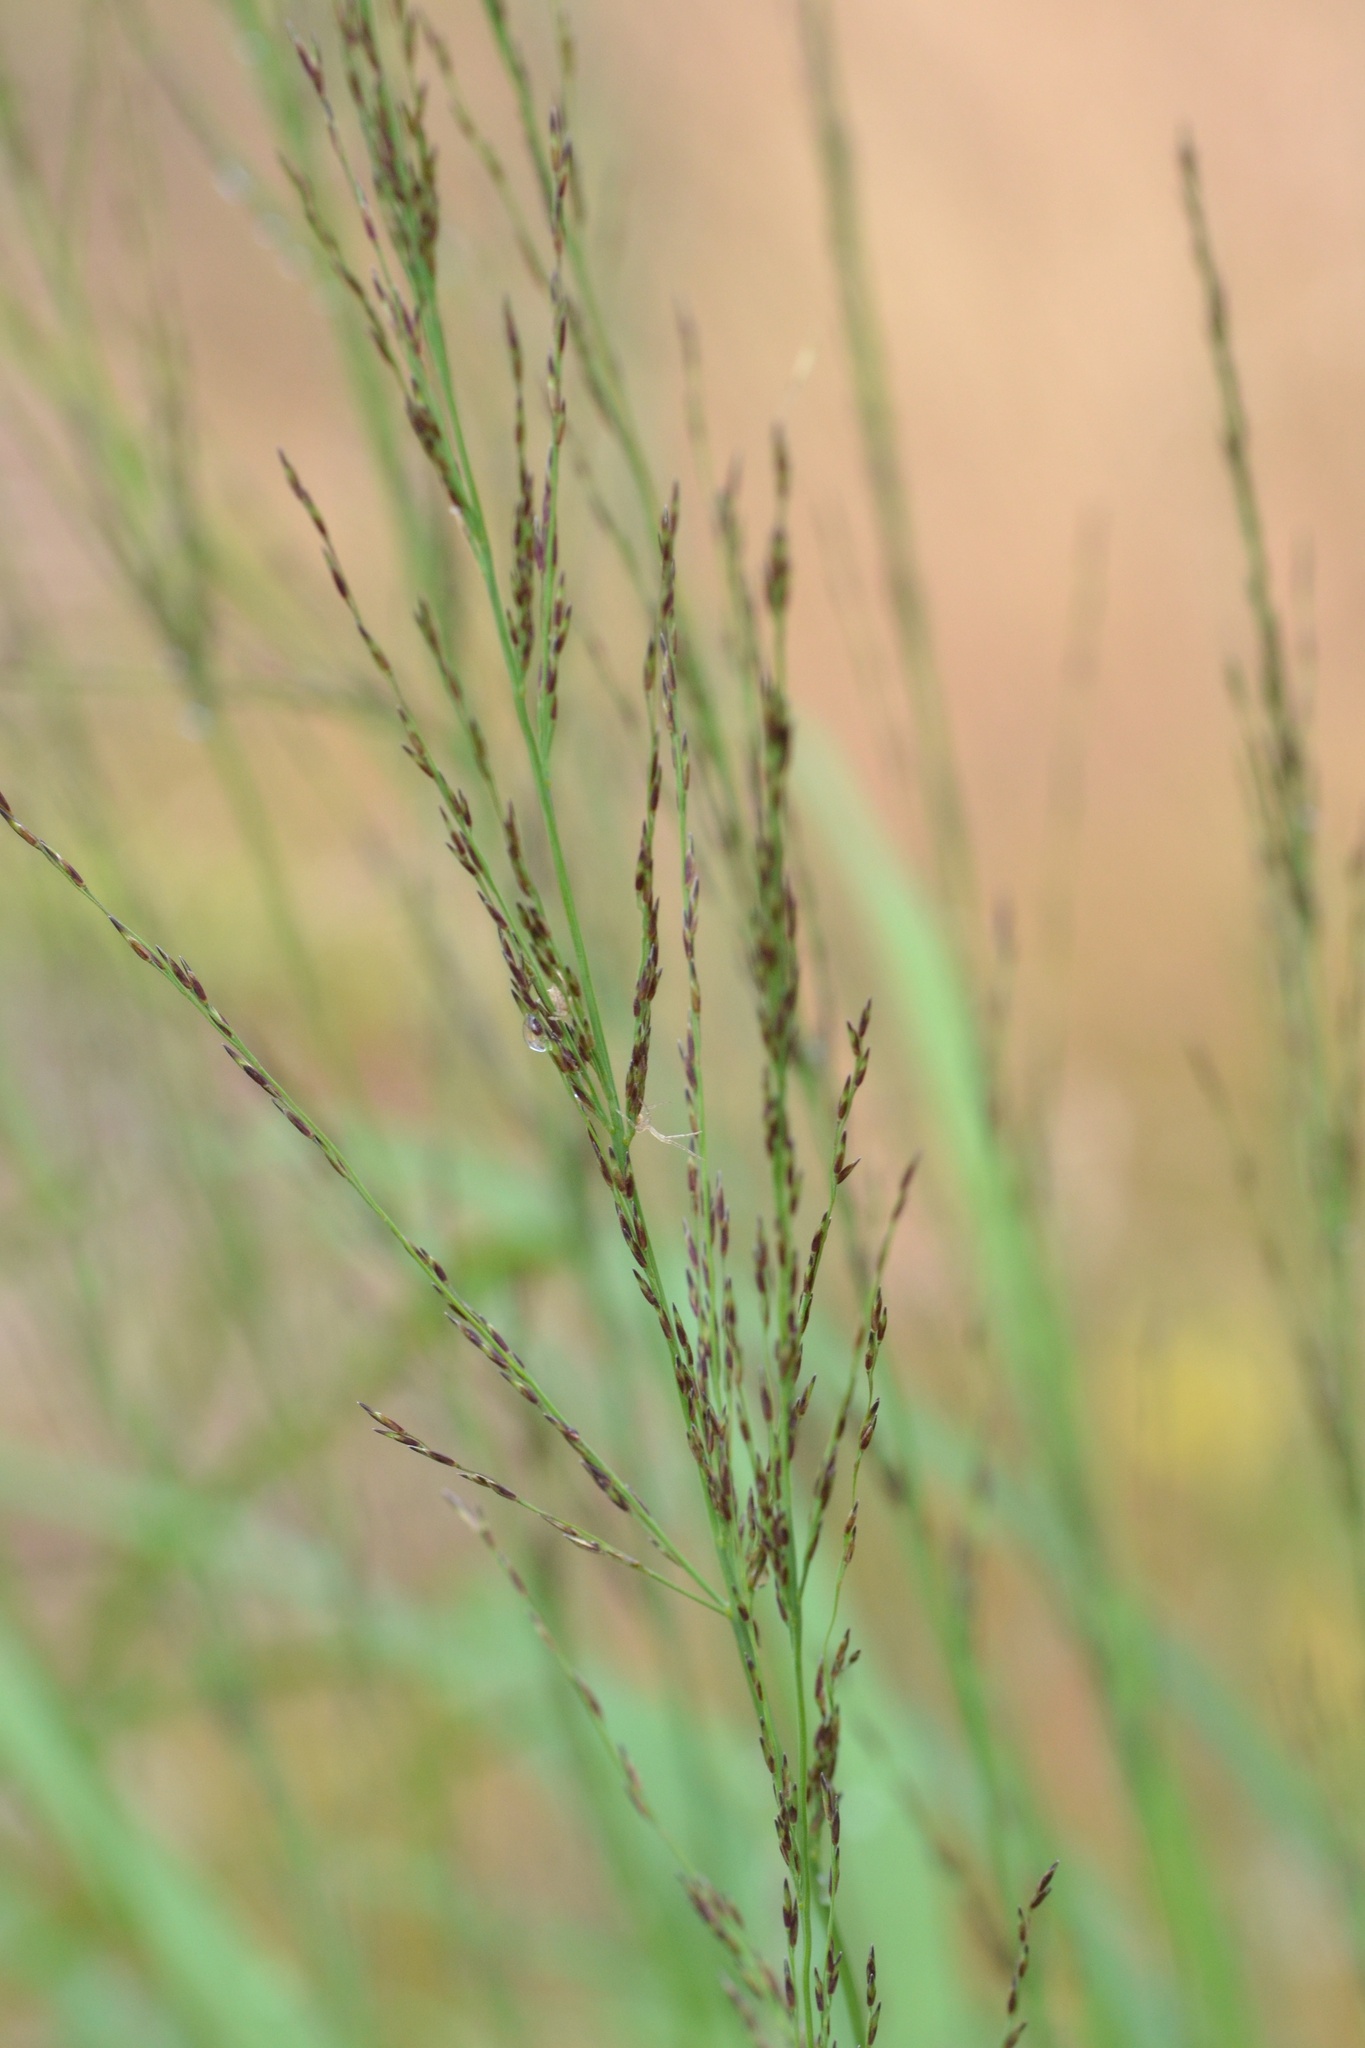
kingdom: Plantae
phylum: Tracheophyta
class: Liliopsida
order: Poales
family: Poaceae
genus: Molinia
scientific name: Molinia caerulea
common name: Purple moor-grass
